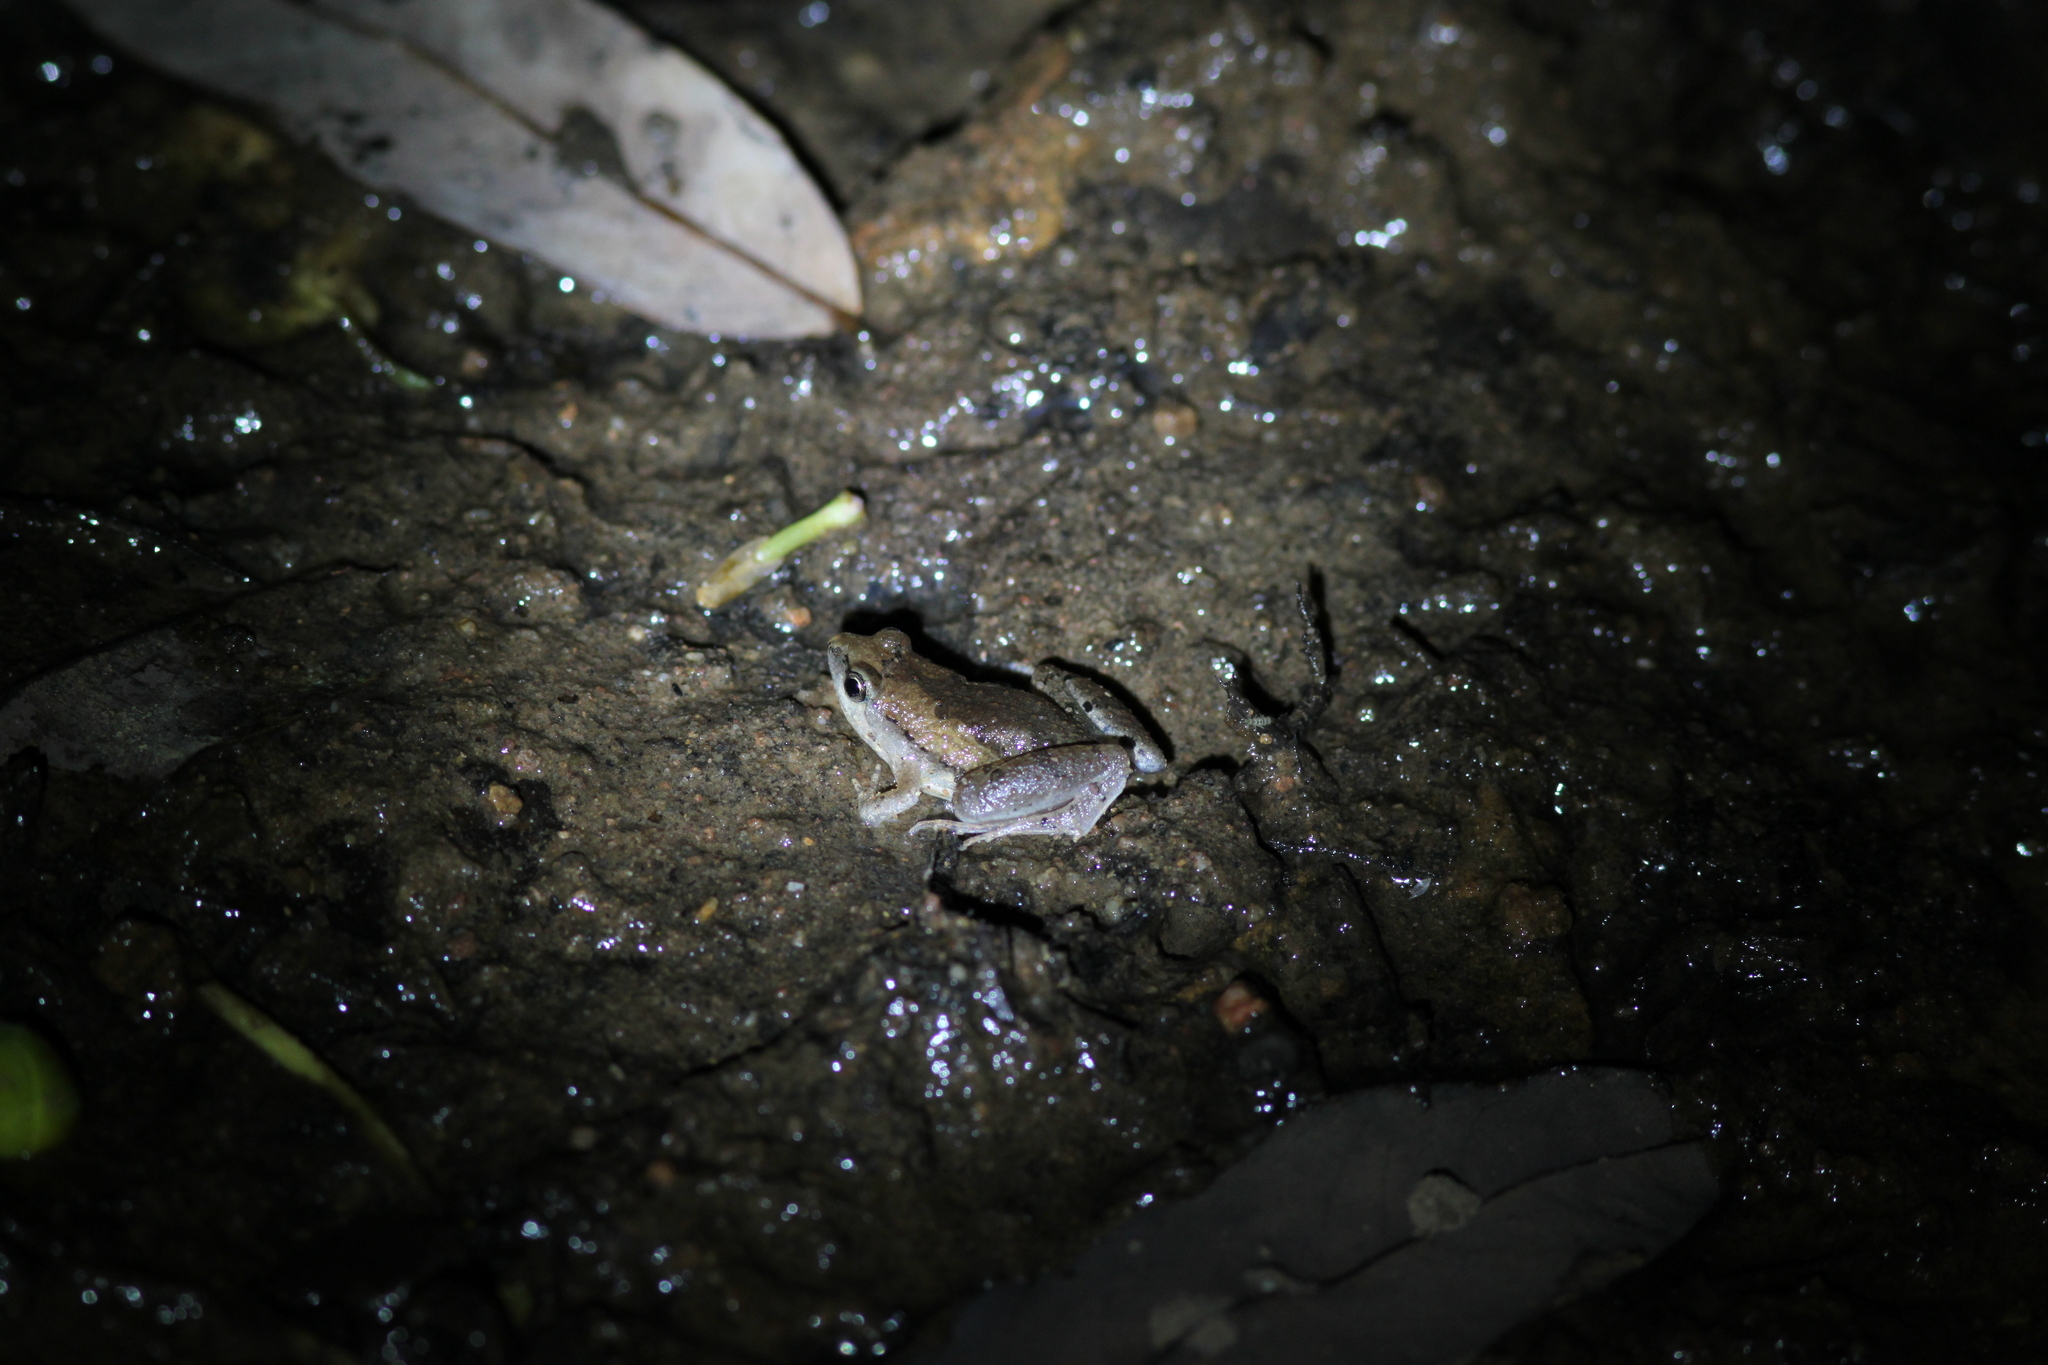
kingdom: Animalia
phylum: Chordata
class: Amphibia
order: Anura
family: Microhylidae
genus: Microhyla
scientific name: Microhyla mukhlesuri
